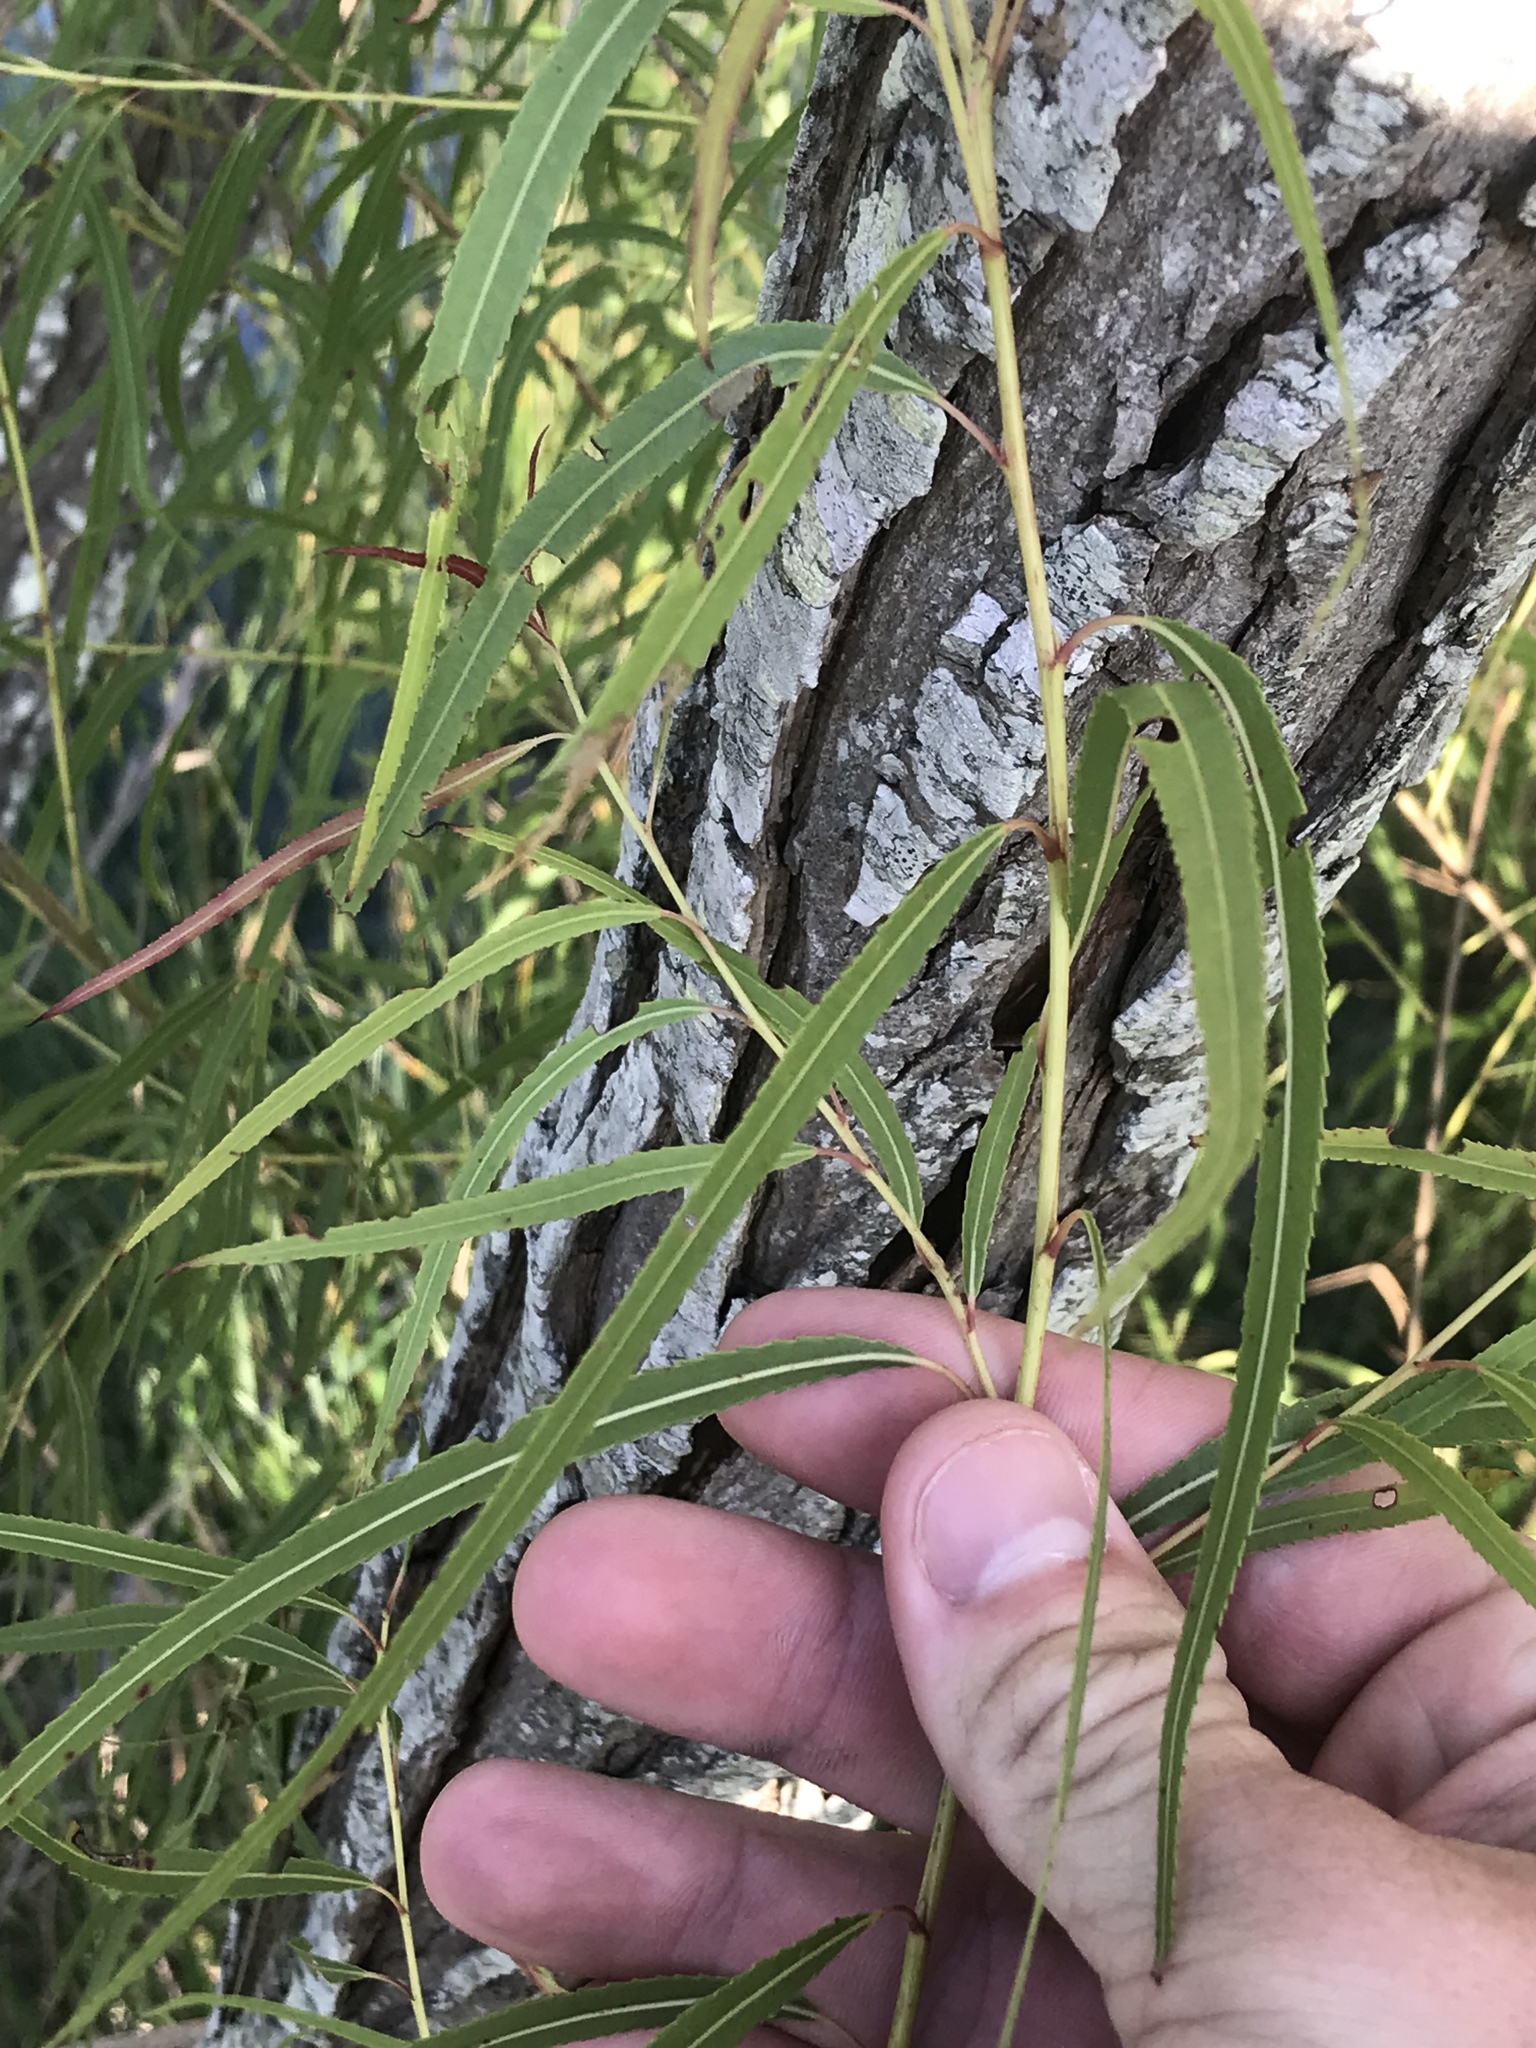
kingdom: Plantae
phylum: Tracheophyta
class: Magnoliopsida
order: Malpighiales
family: Salicaceae
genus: Salix
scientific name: Salix nigra
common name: Black willow
